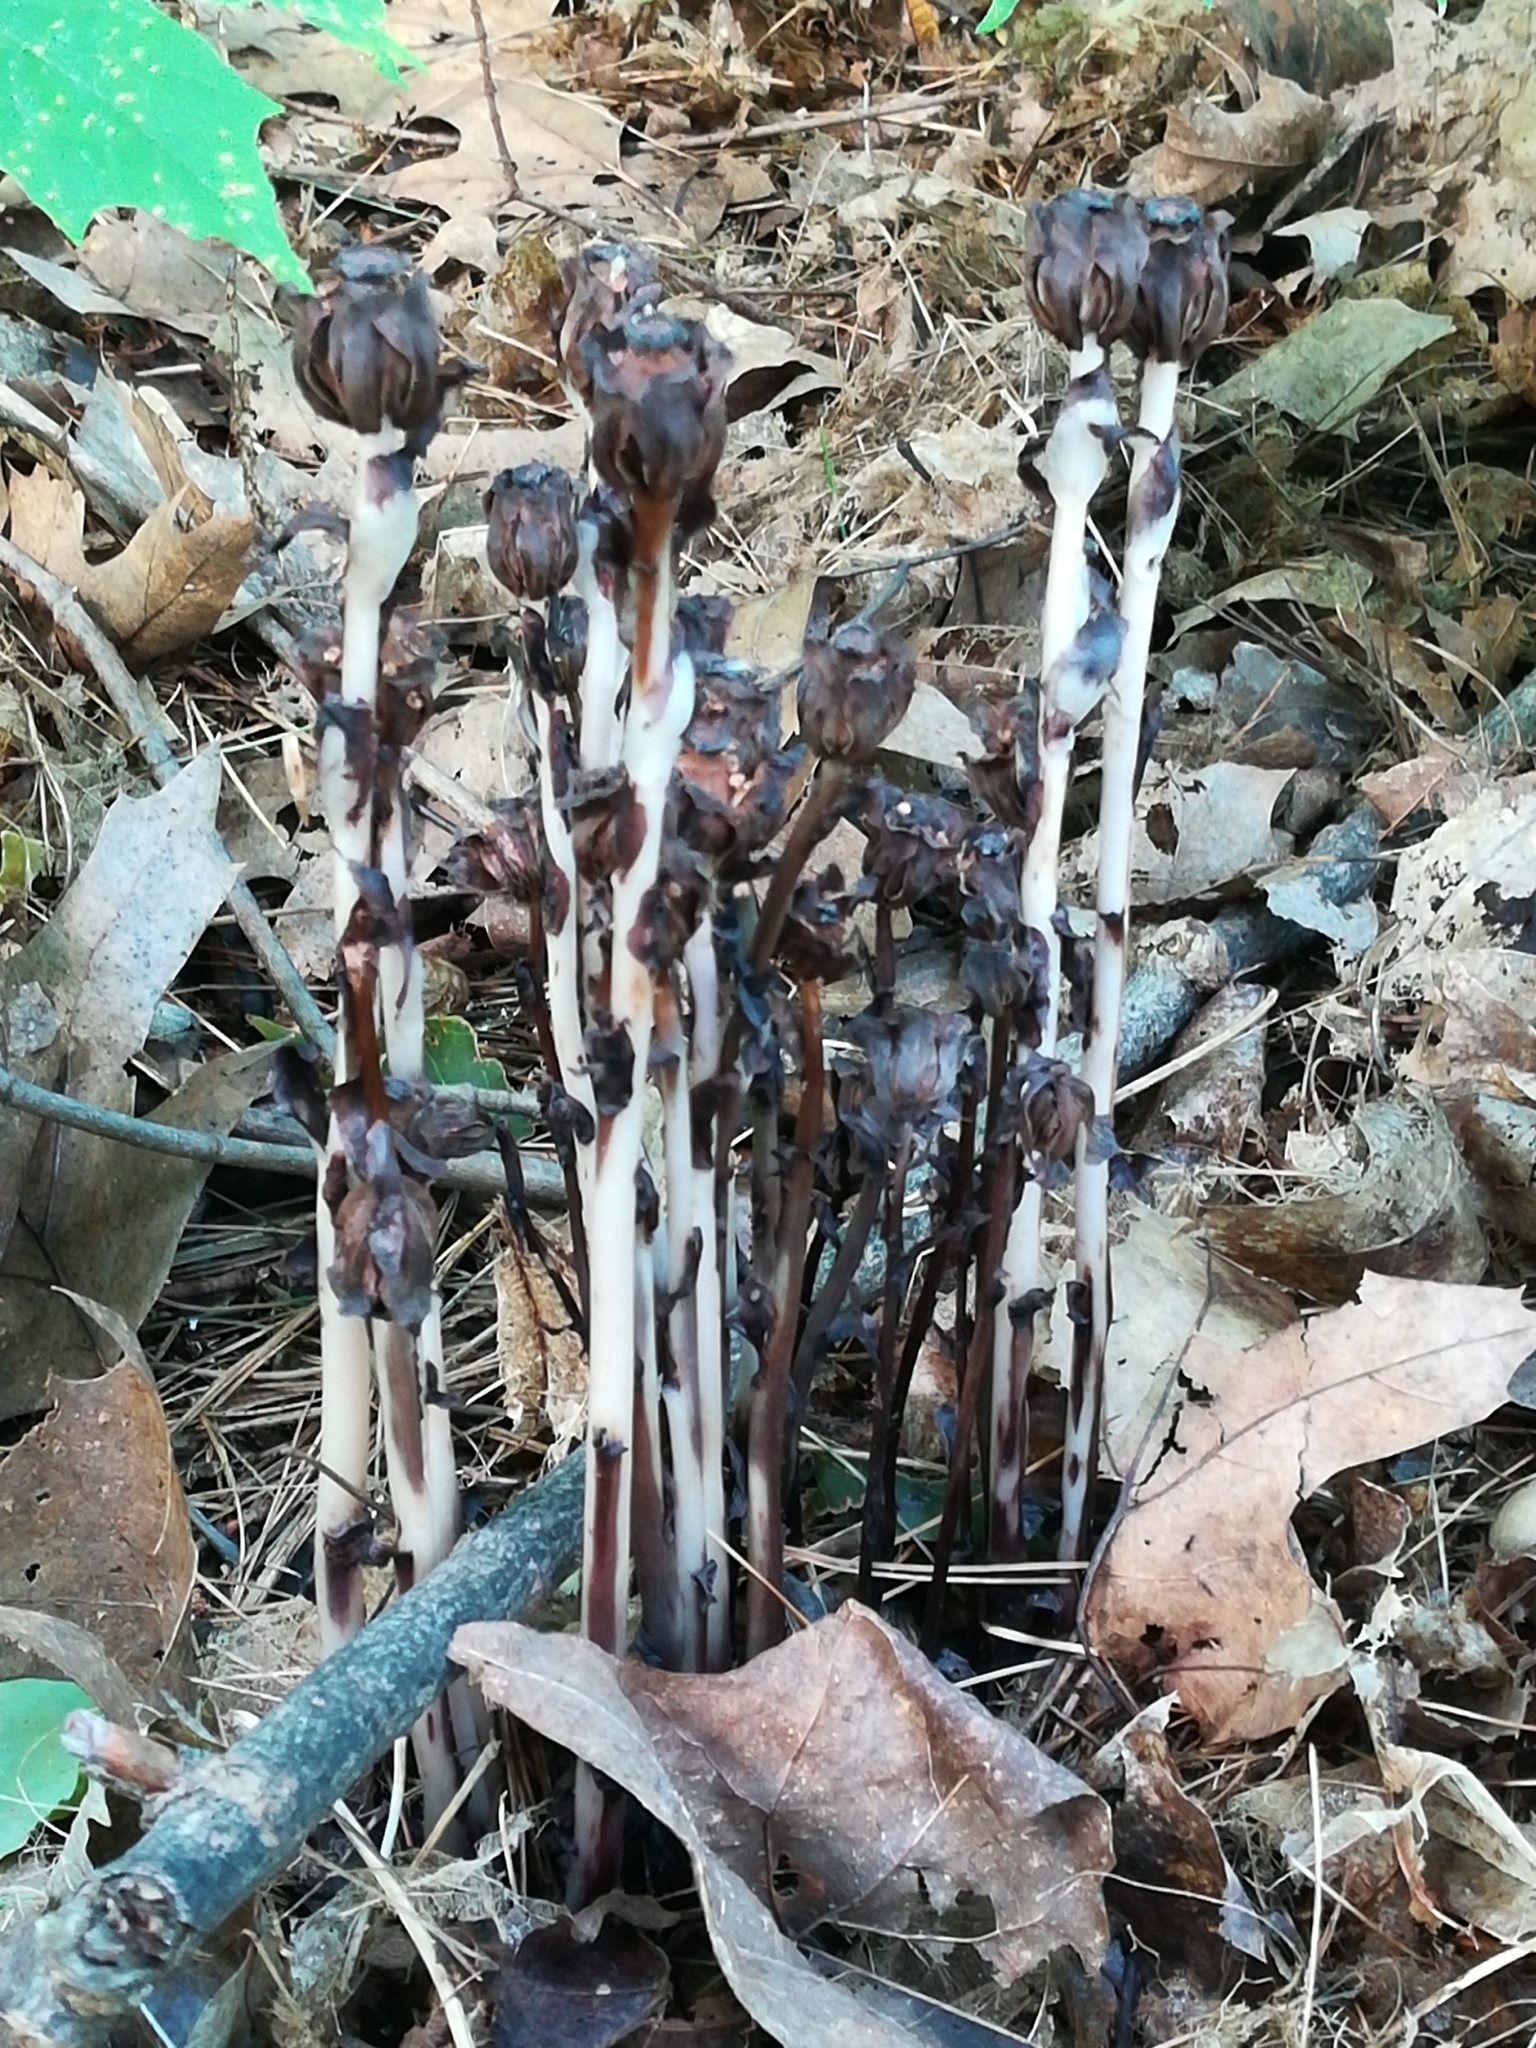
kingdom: Plantae
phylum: Tracheophyta
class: Magnoliopsida
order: Ericales
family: Ericaceae
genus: Monotropa
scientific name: Monotropa uniflora
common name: Convulsion root
